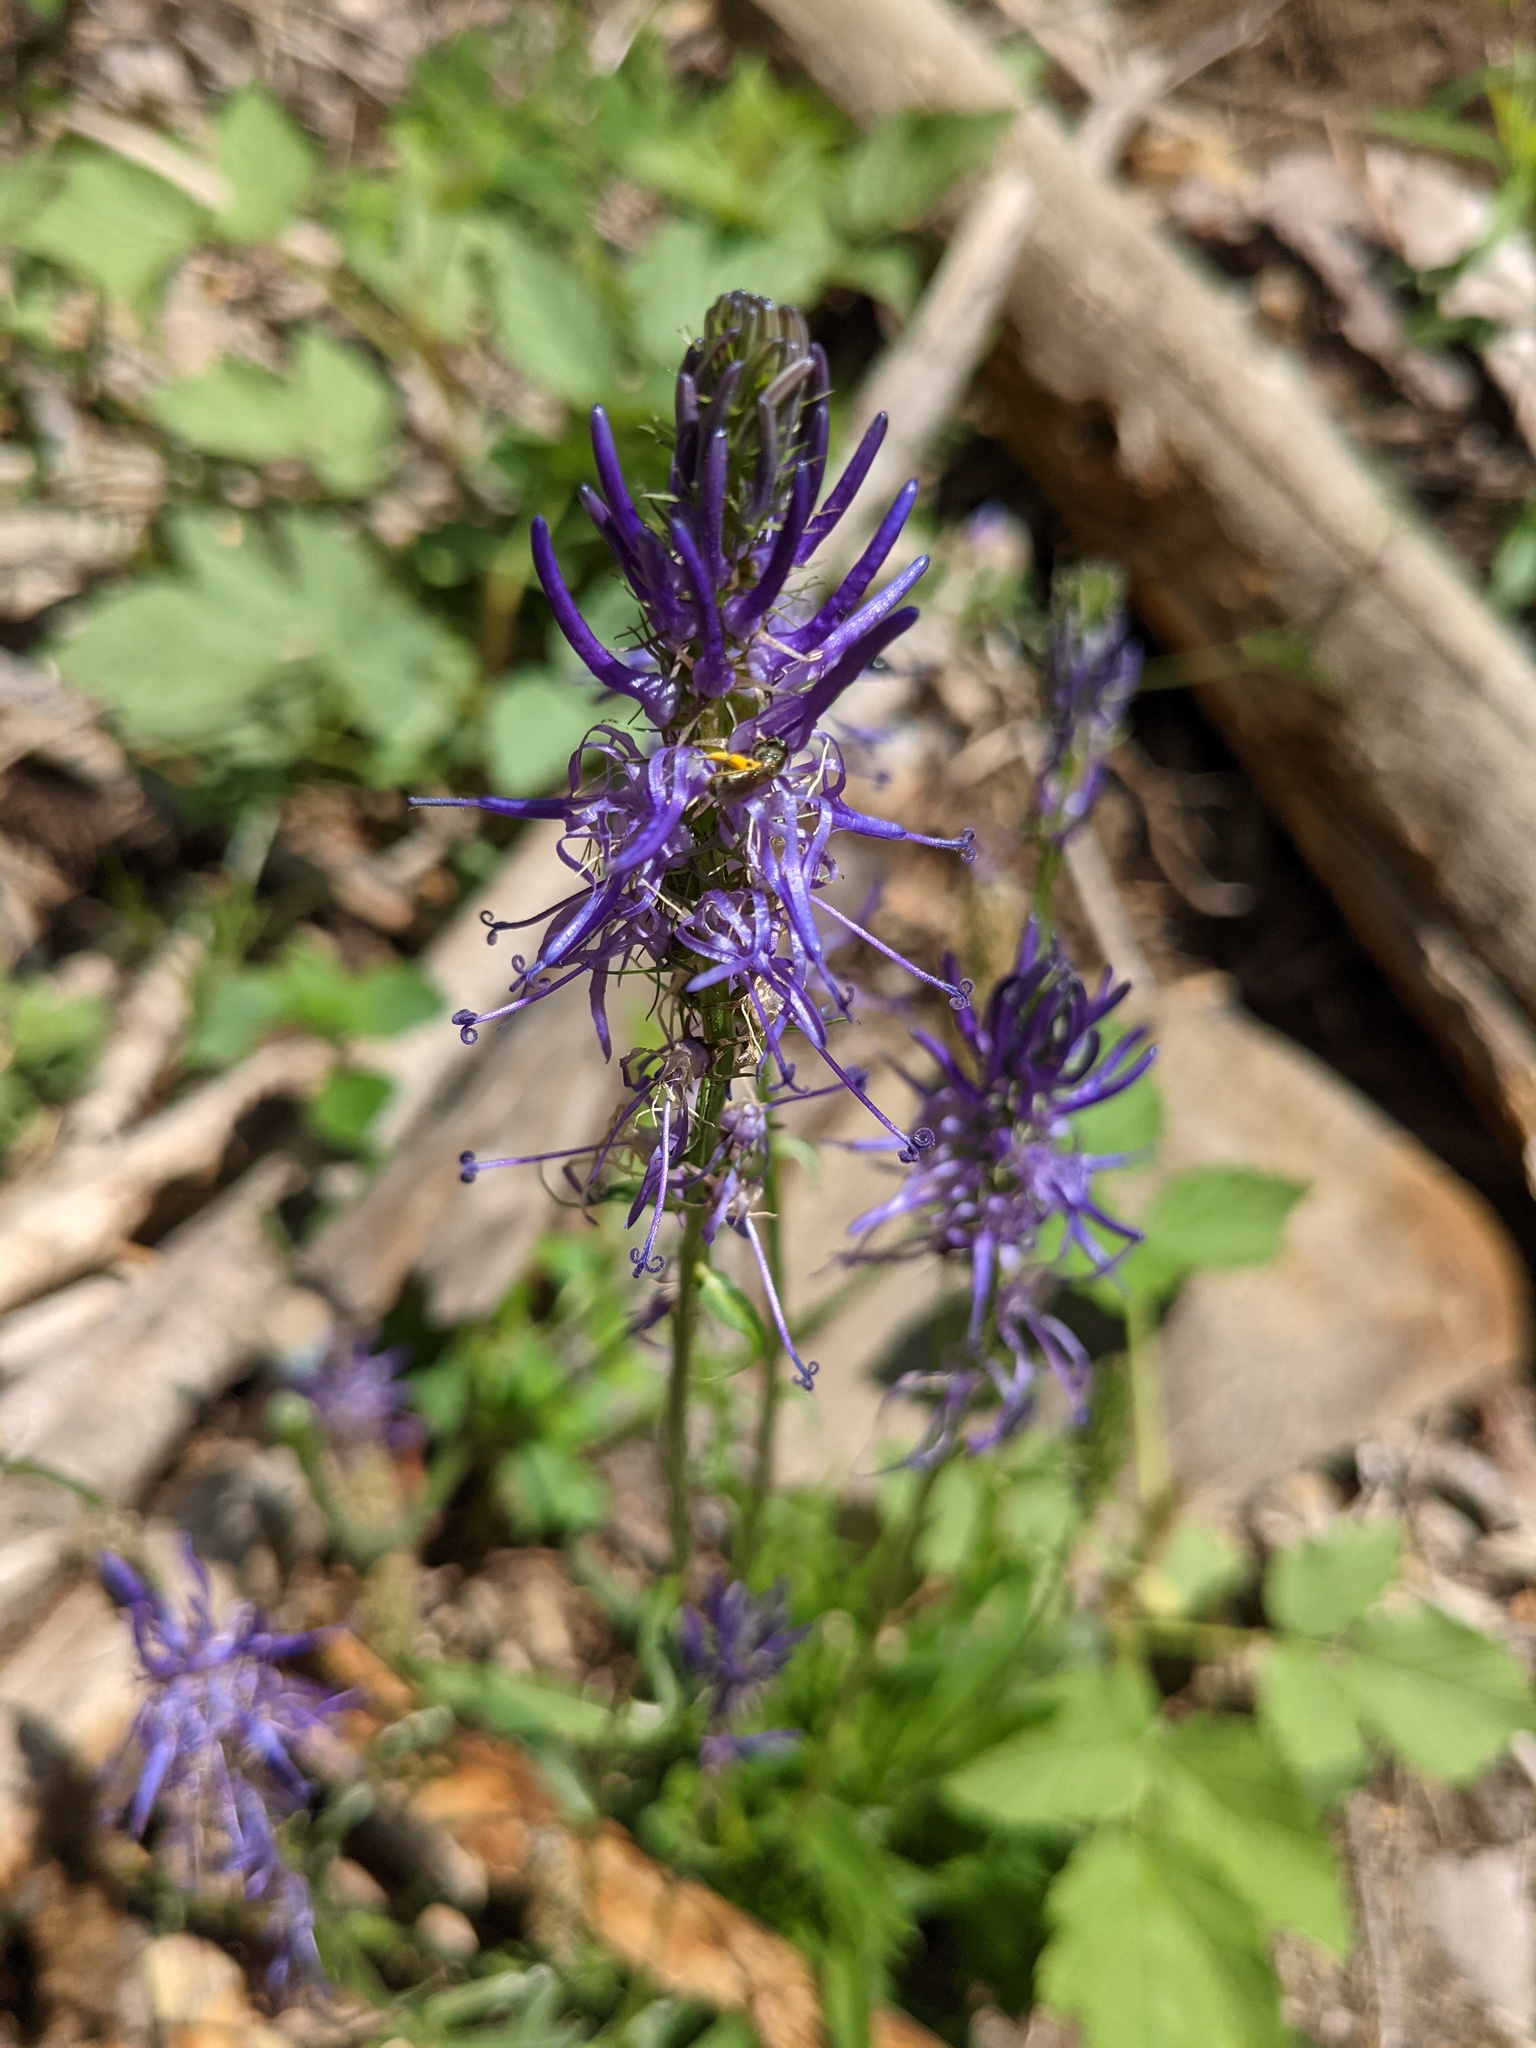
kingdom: Plantae
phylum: Tracheophyta
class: Magnoliopsida
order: Asterales
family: Campanulaceae
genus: Phyteuma
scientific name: Phyteuma betonicifolium
